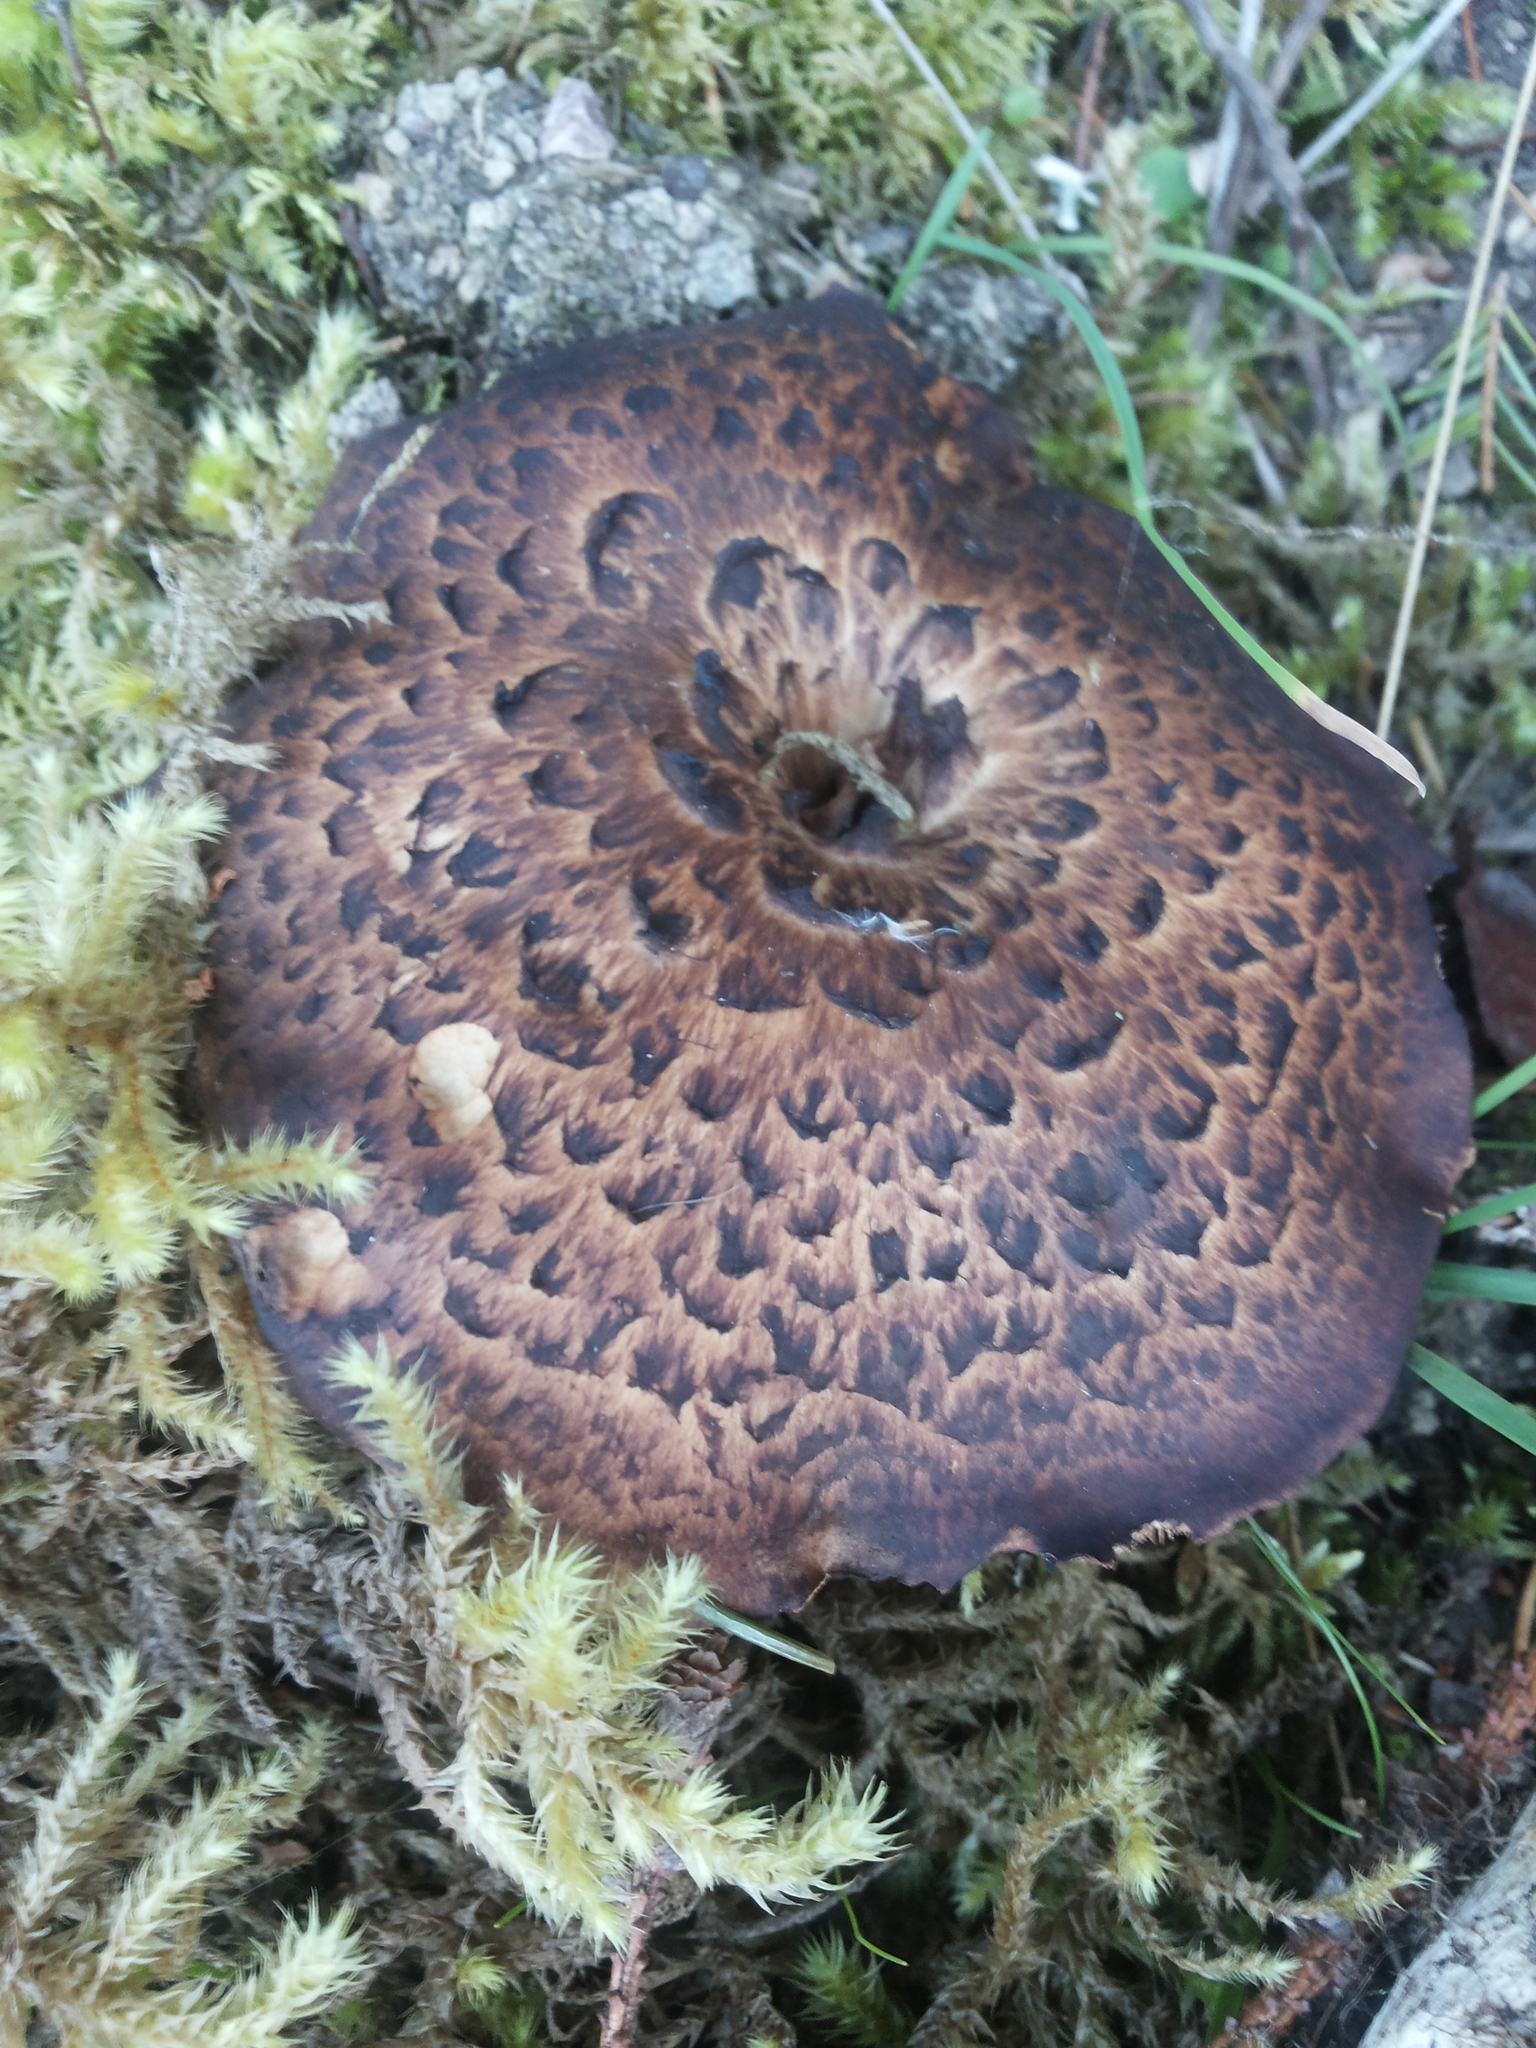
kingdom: Fungi
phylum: Basidiomycota
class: Agaricomycetes
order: Thelephorales
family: Bankeraceae
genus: Sarcodon
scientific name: Sarcodon imbricatus
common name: Shingled hedgehog
